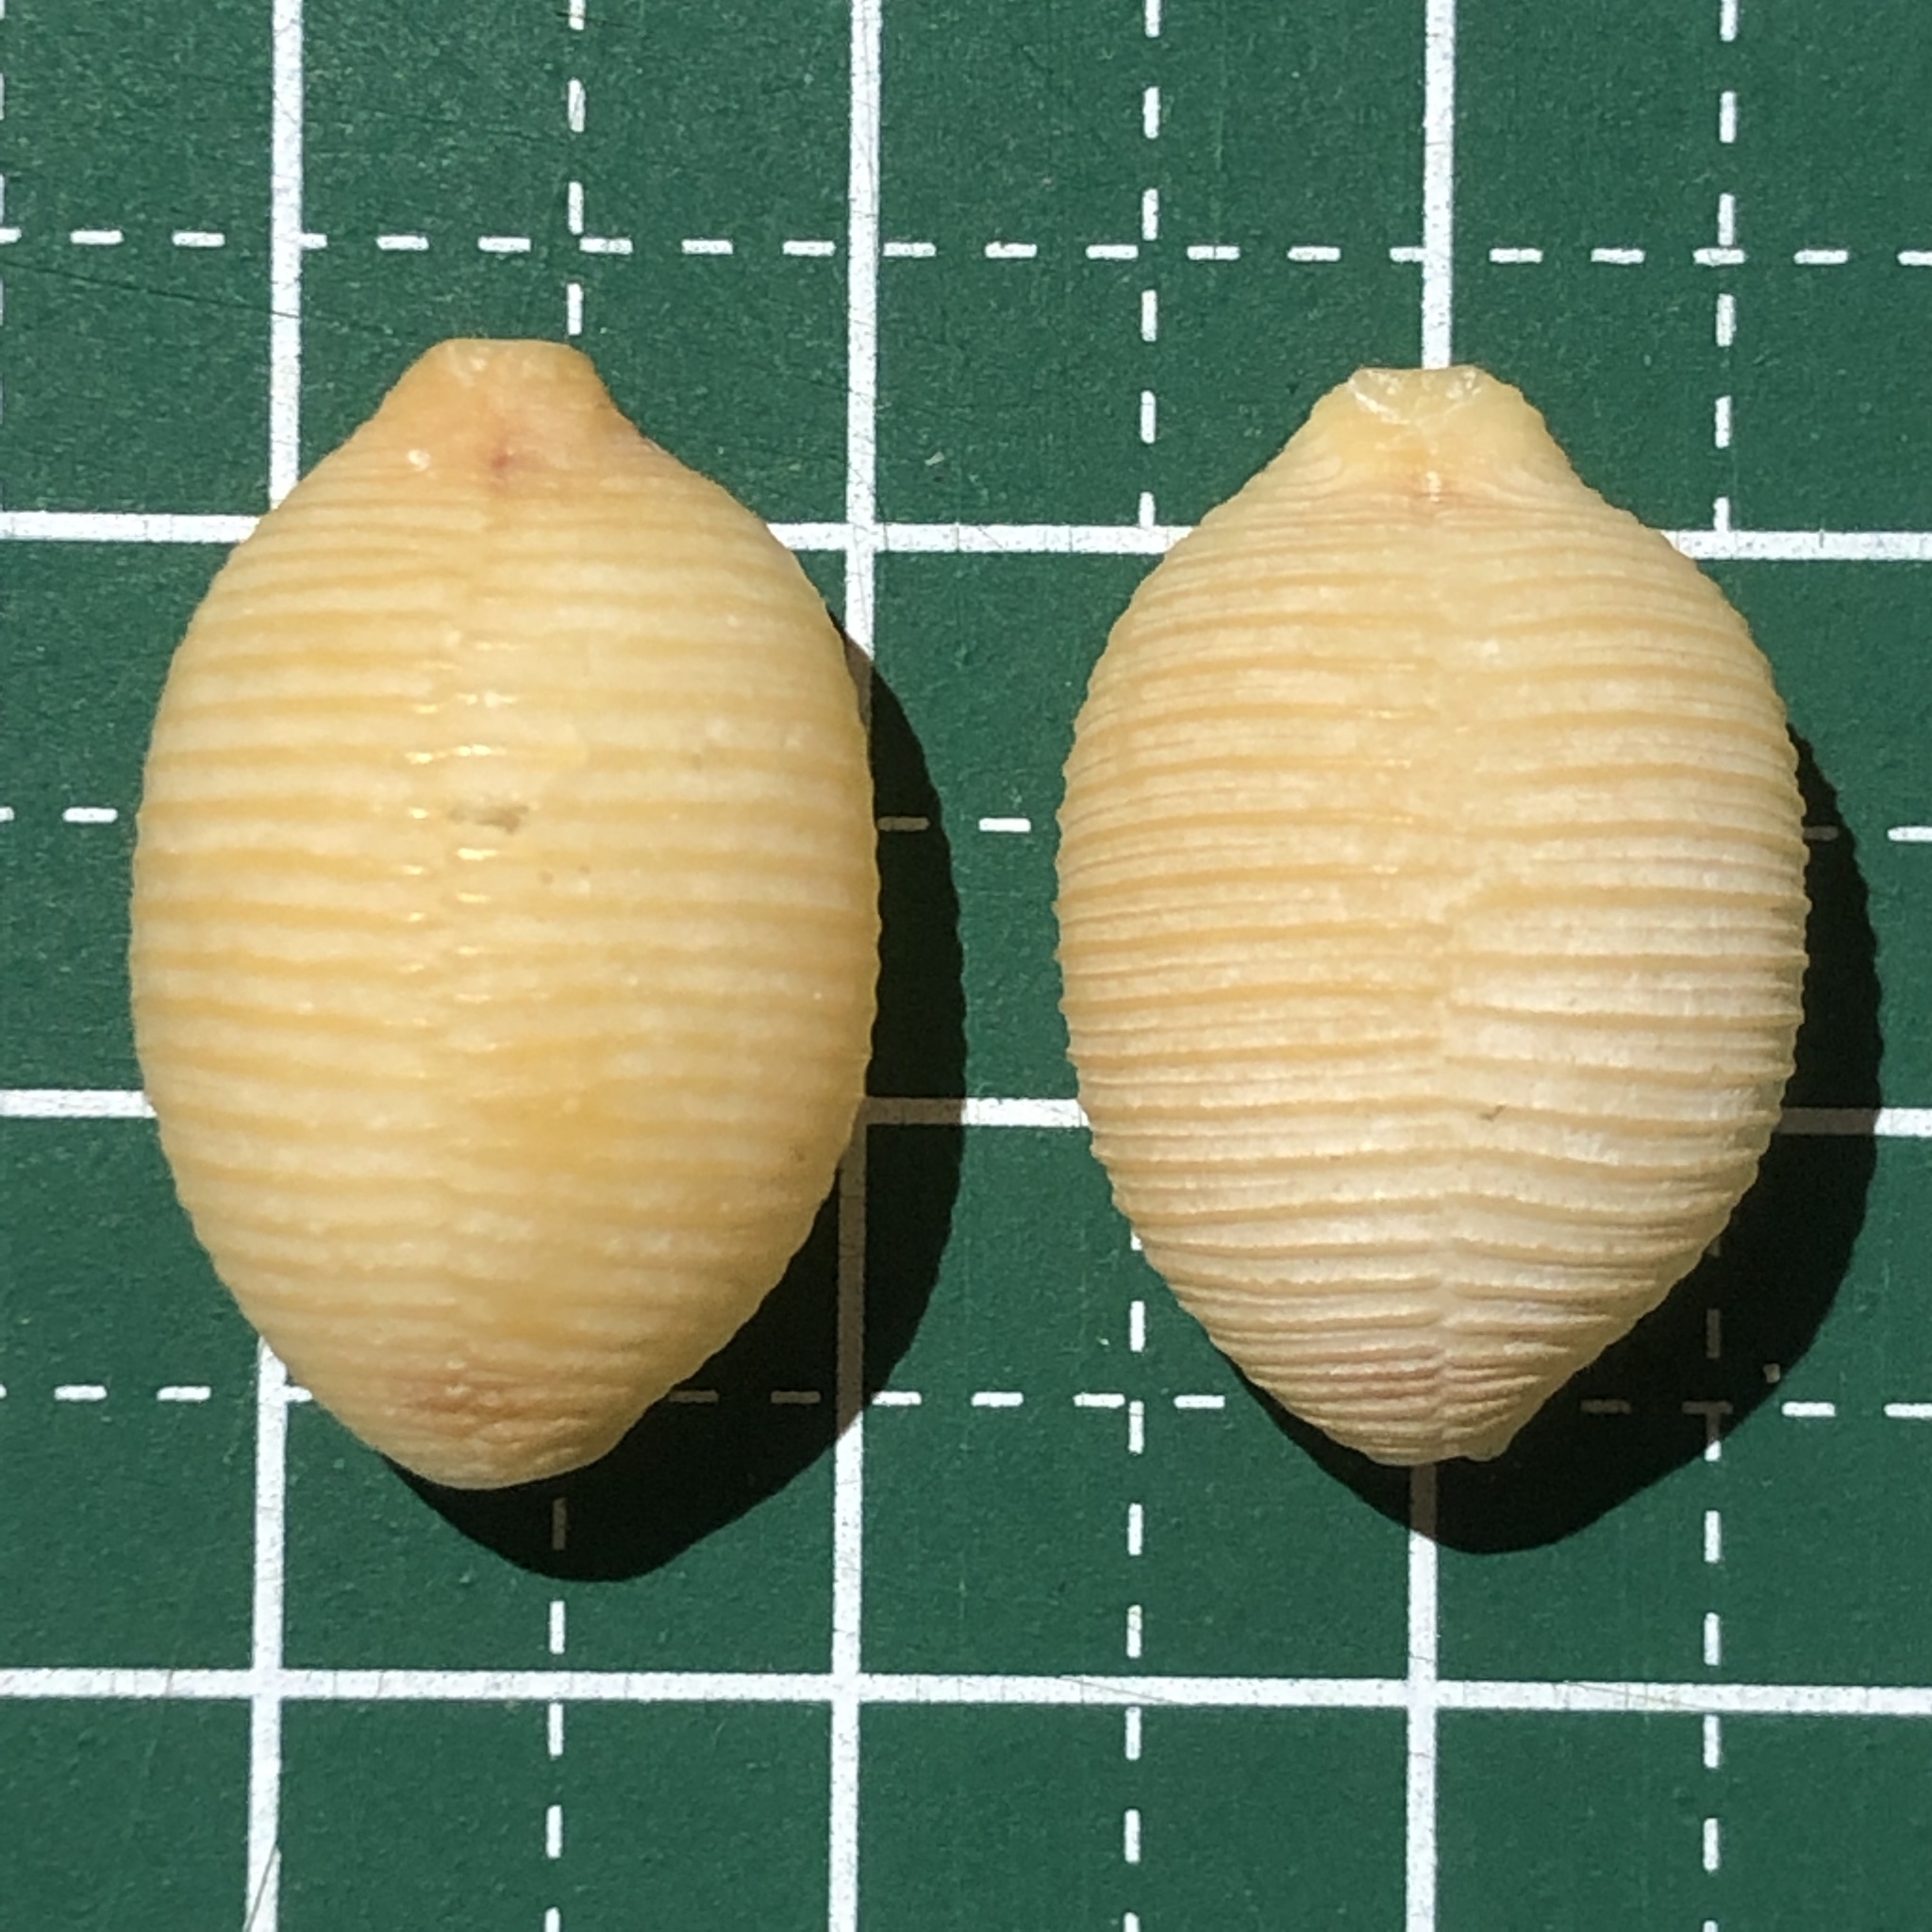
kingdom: Animalia
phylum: Mollusca
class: Gastropoda
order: Littorinimorpha
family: Cypraeidae
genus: Ipsa
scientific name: Ipsa childreni
